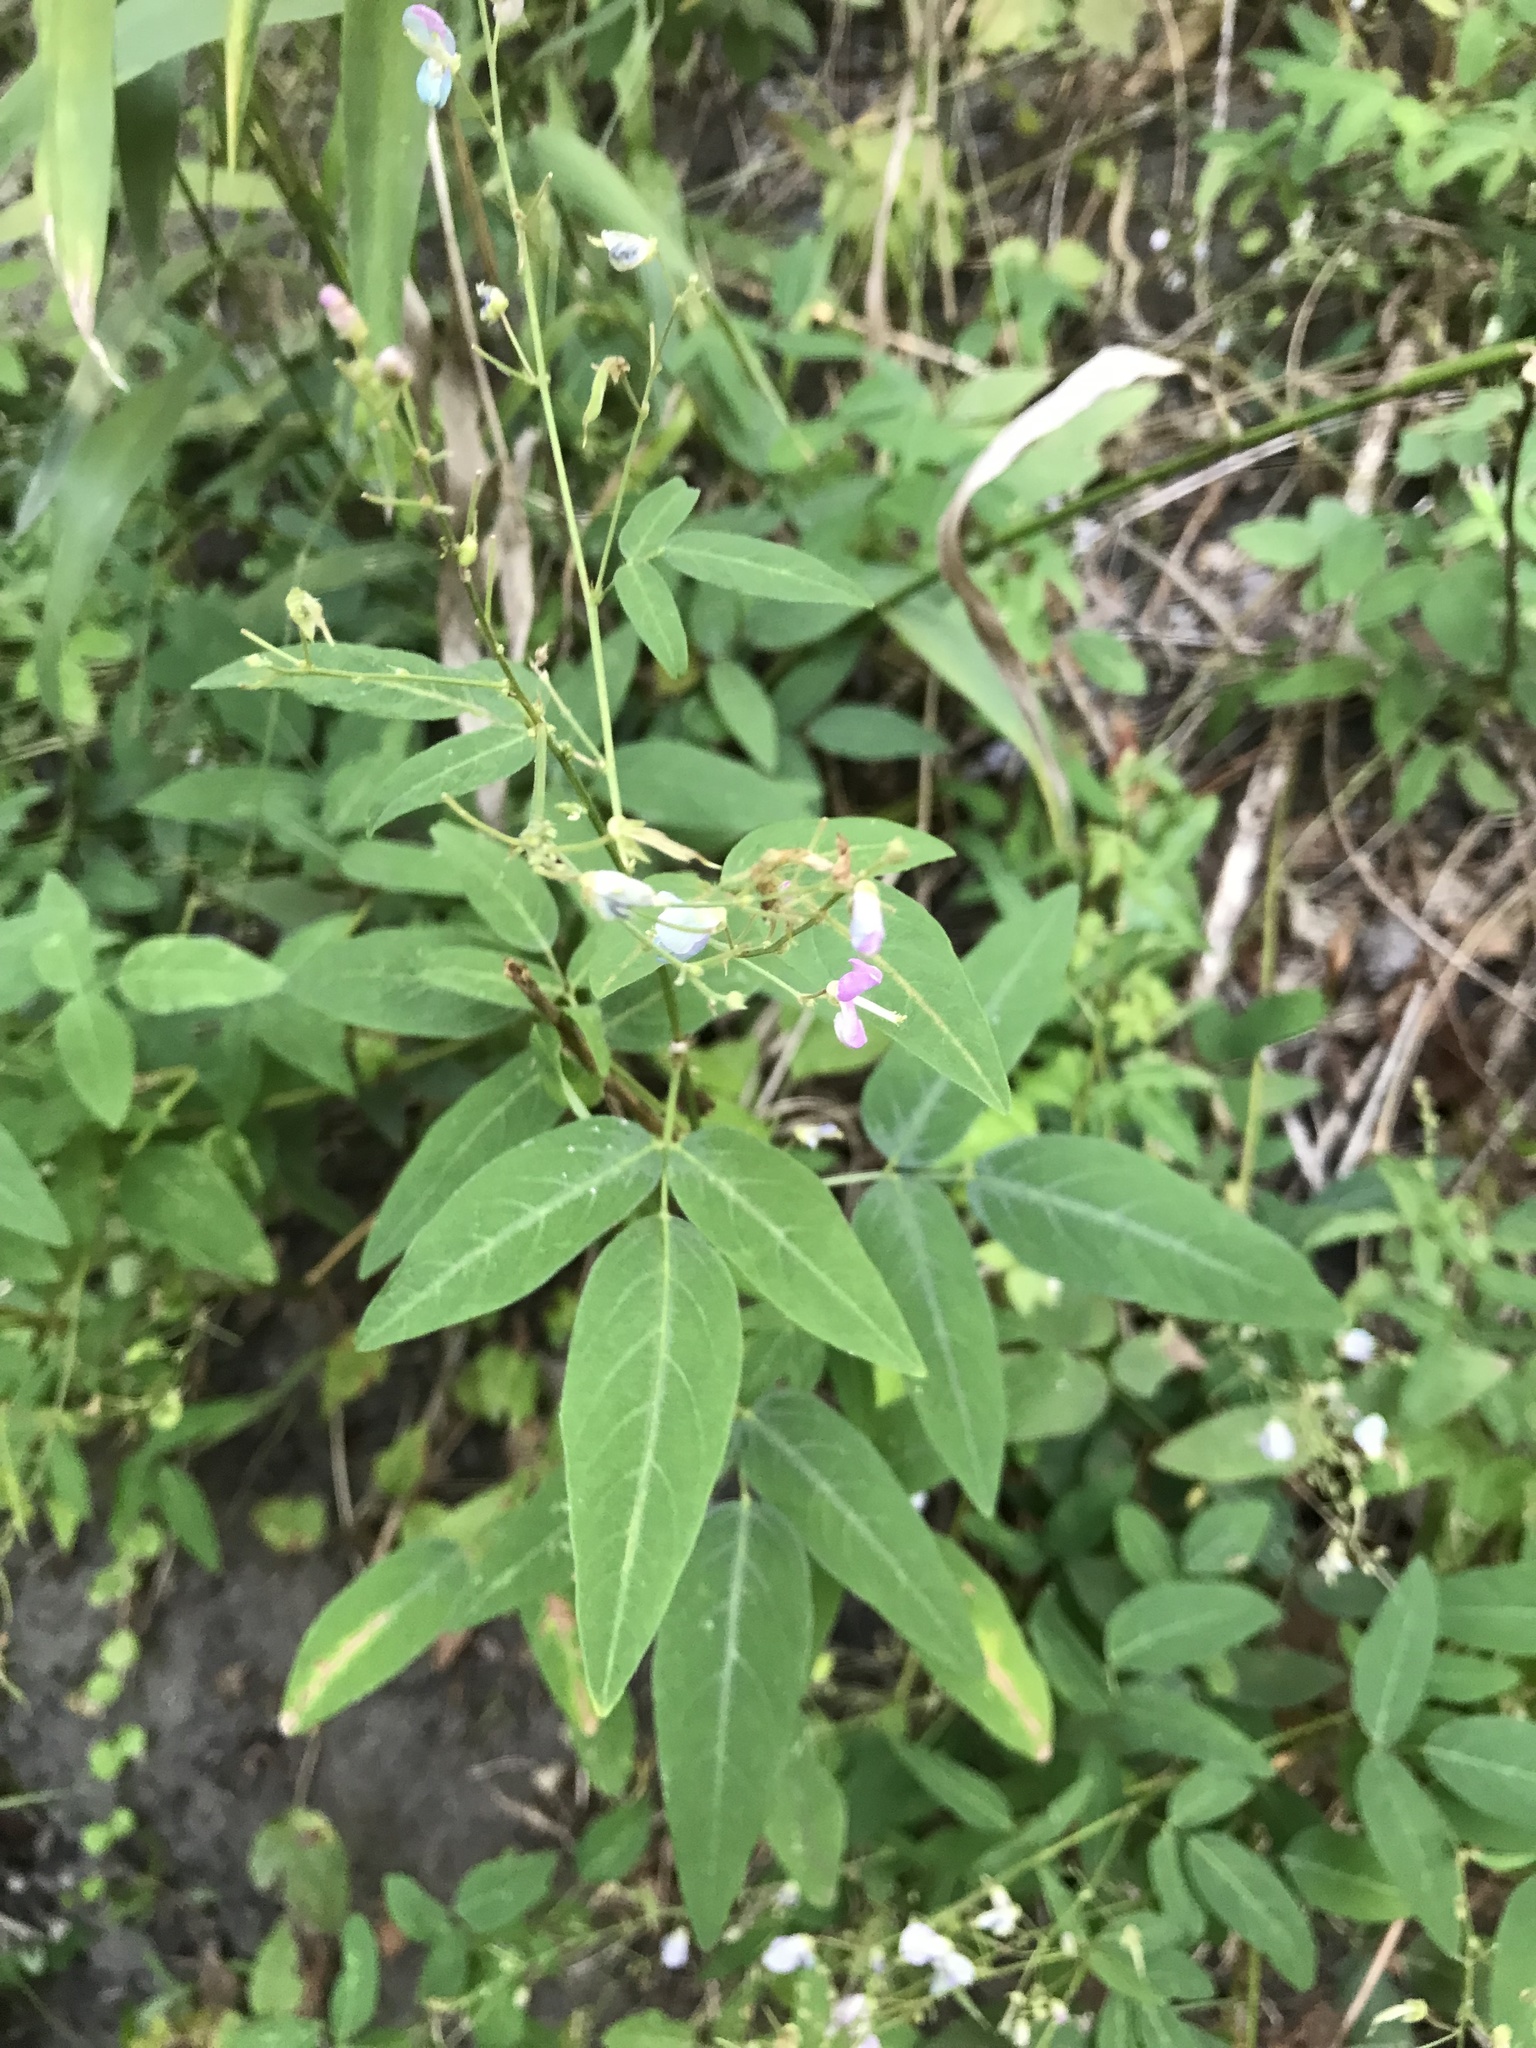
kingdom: Plantae
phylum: Tracheophyta
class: Magnoliopsida
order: Fabales
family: Fabaceae
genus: Desmodium
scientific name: Desmodium paniculatum
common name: Panicled tick-clover
